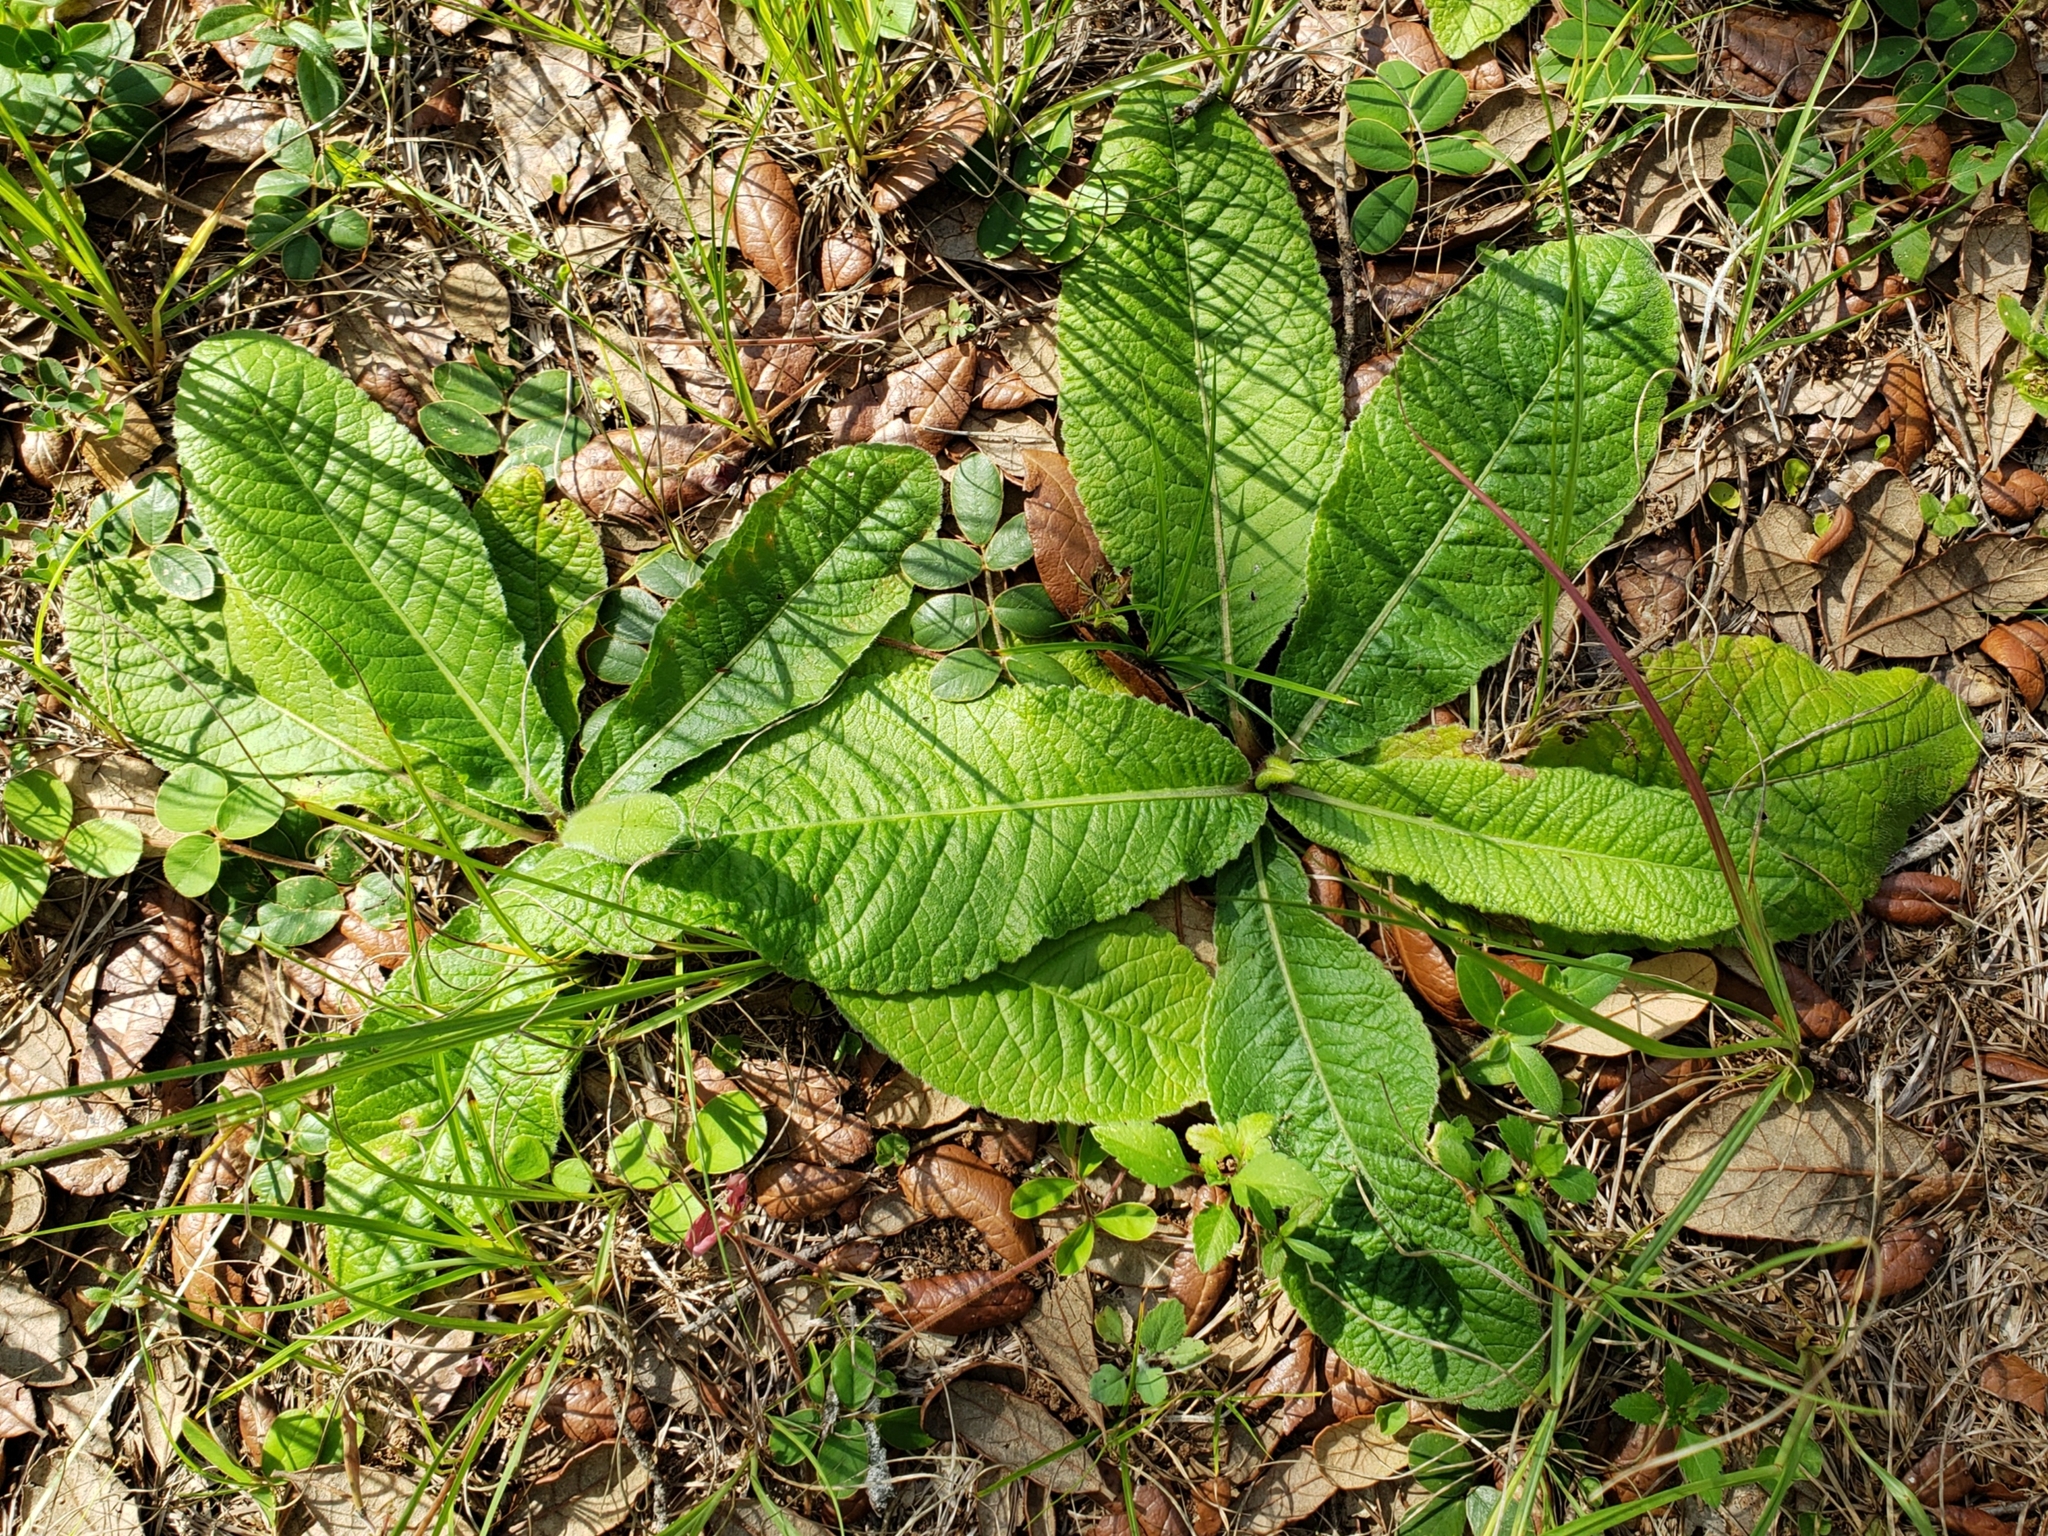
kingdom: Plantae
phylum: Tracheophyta
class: Magnoliopsida
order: Asterales
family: Asteraceae
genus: Elephantopus
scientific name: Elephantopus elatus
